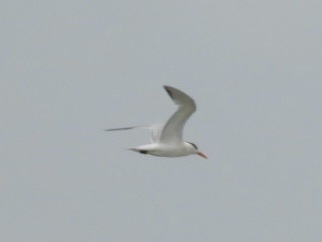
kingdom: Animalia
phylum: Chordata
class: Aves
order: Charadriiformes
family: Laridae
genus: Thalasseus
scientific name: Thalasseus maximus
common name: Royal tern
